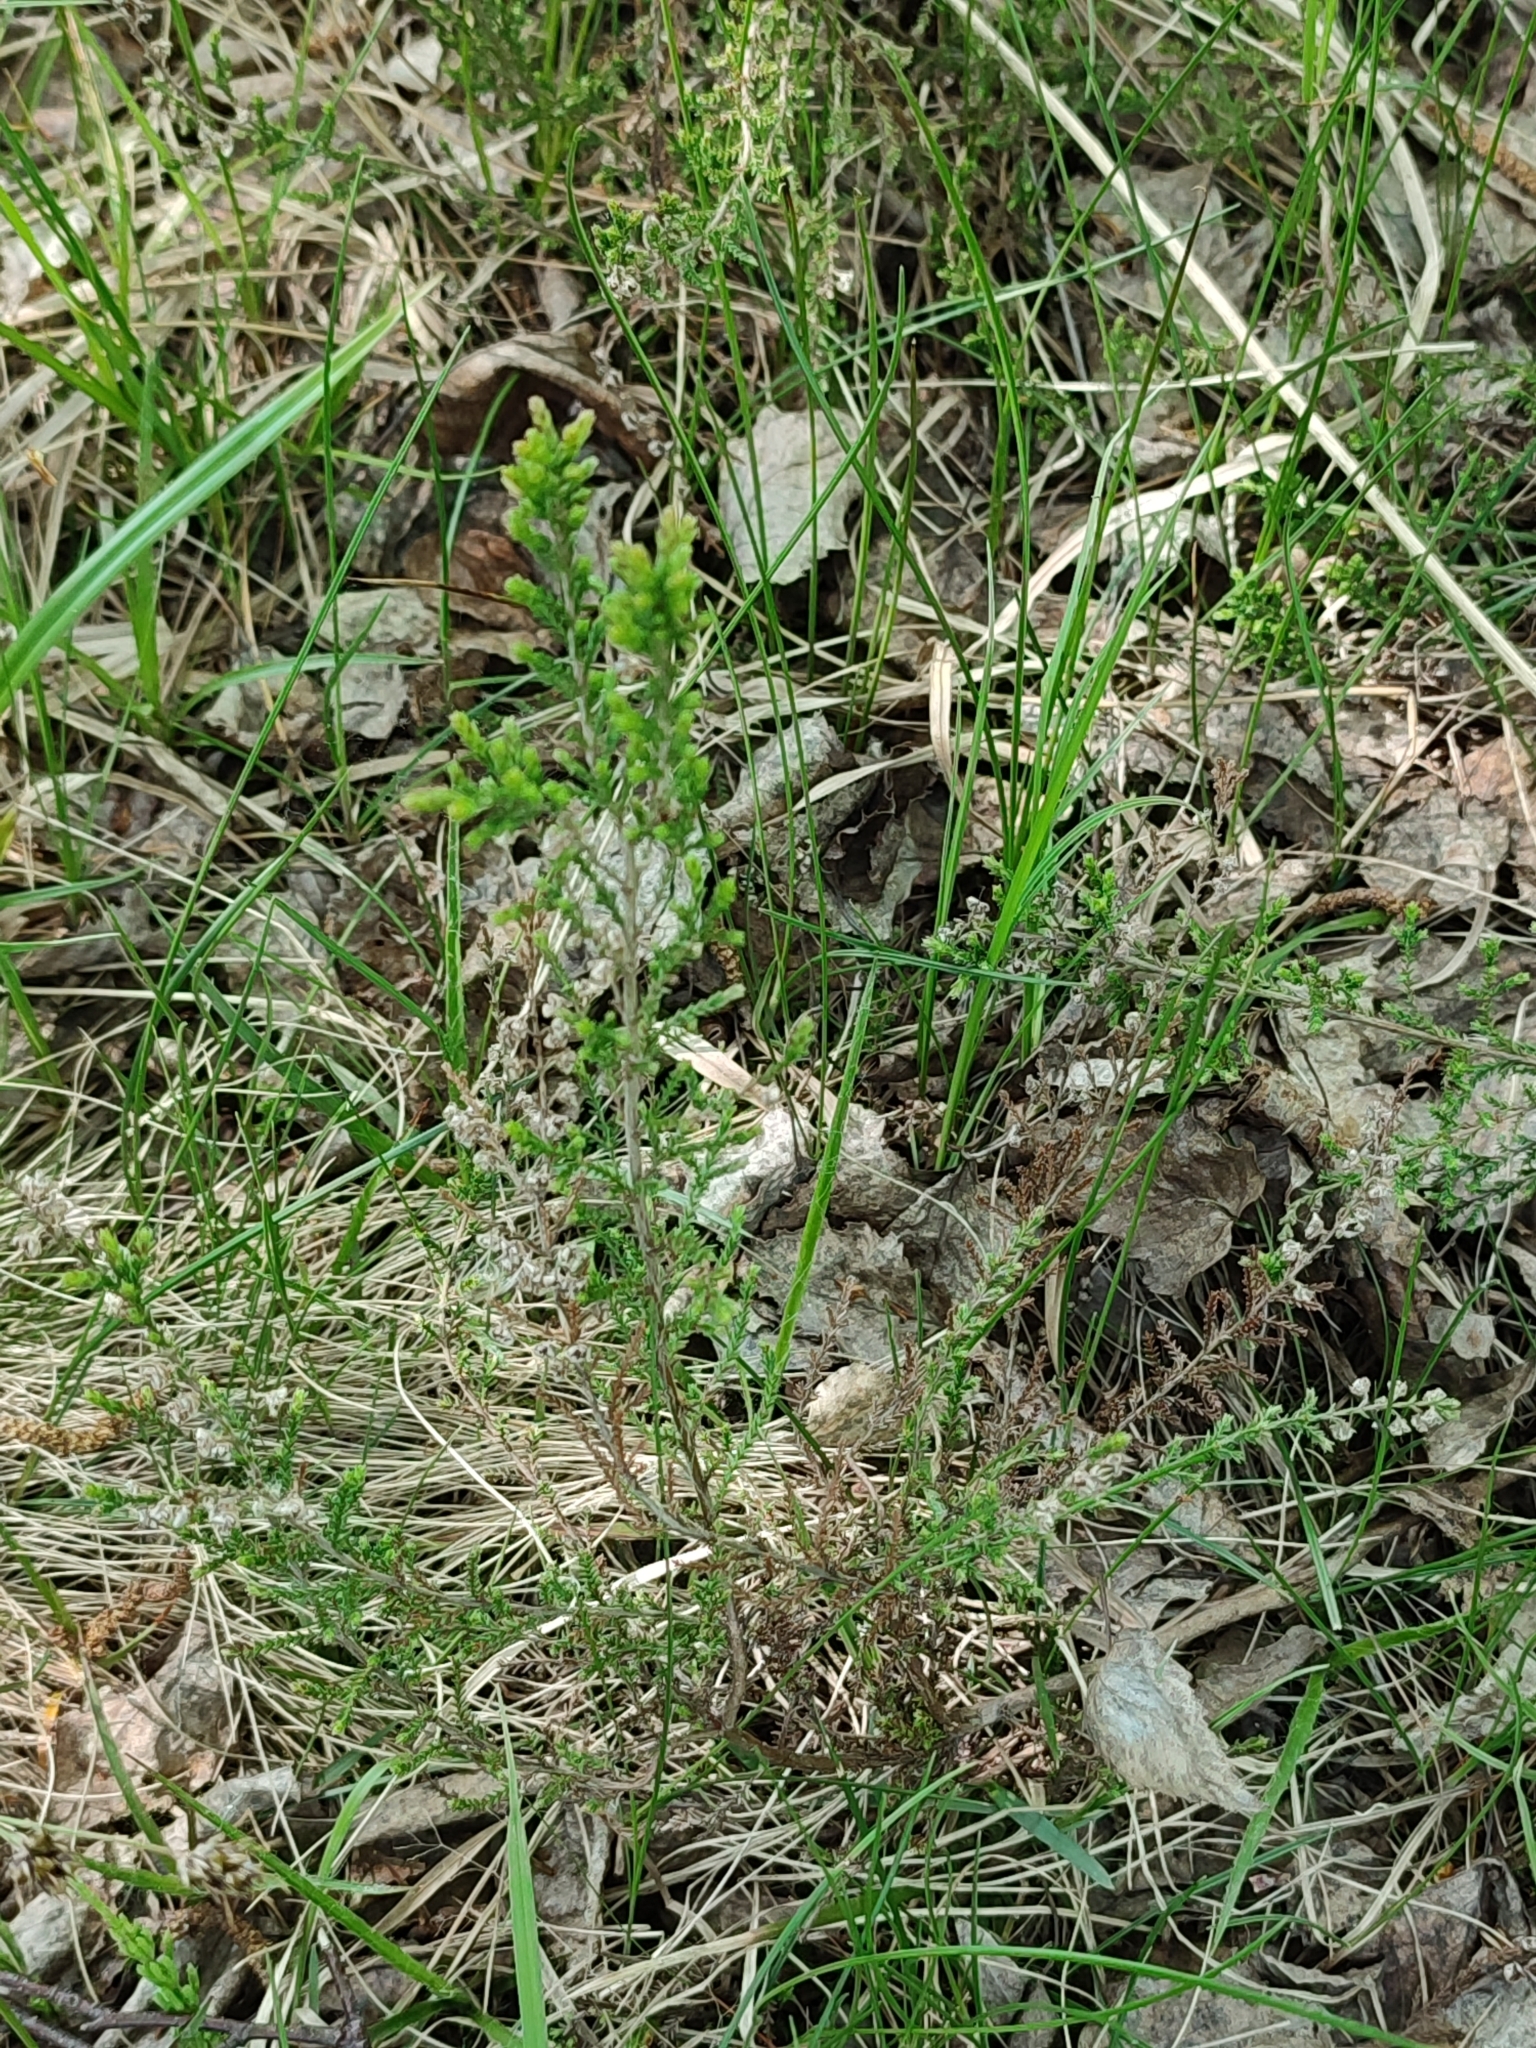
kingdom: Plantae
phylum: Tracheophyta
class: Magnoliopsida
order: Ericales
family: Ericaceae
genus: Calluna
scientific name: Calluna vulgaris
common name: Heather
